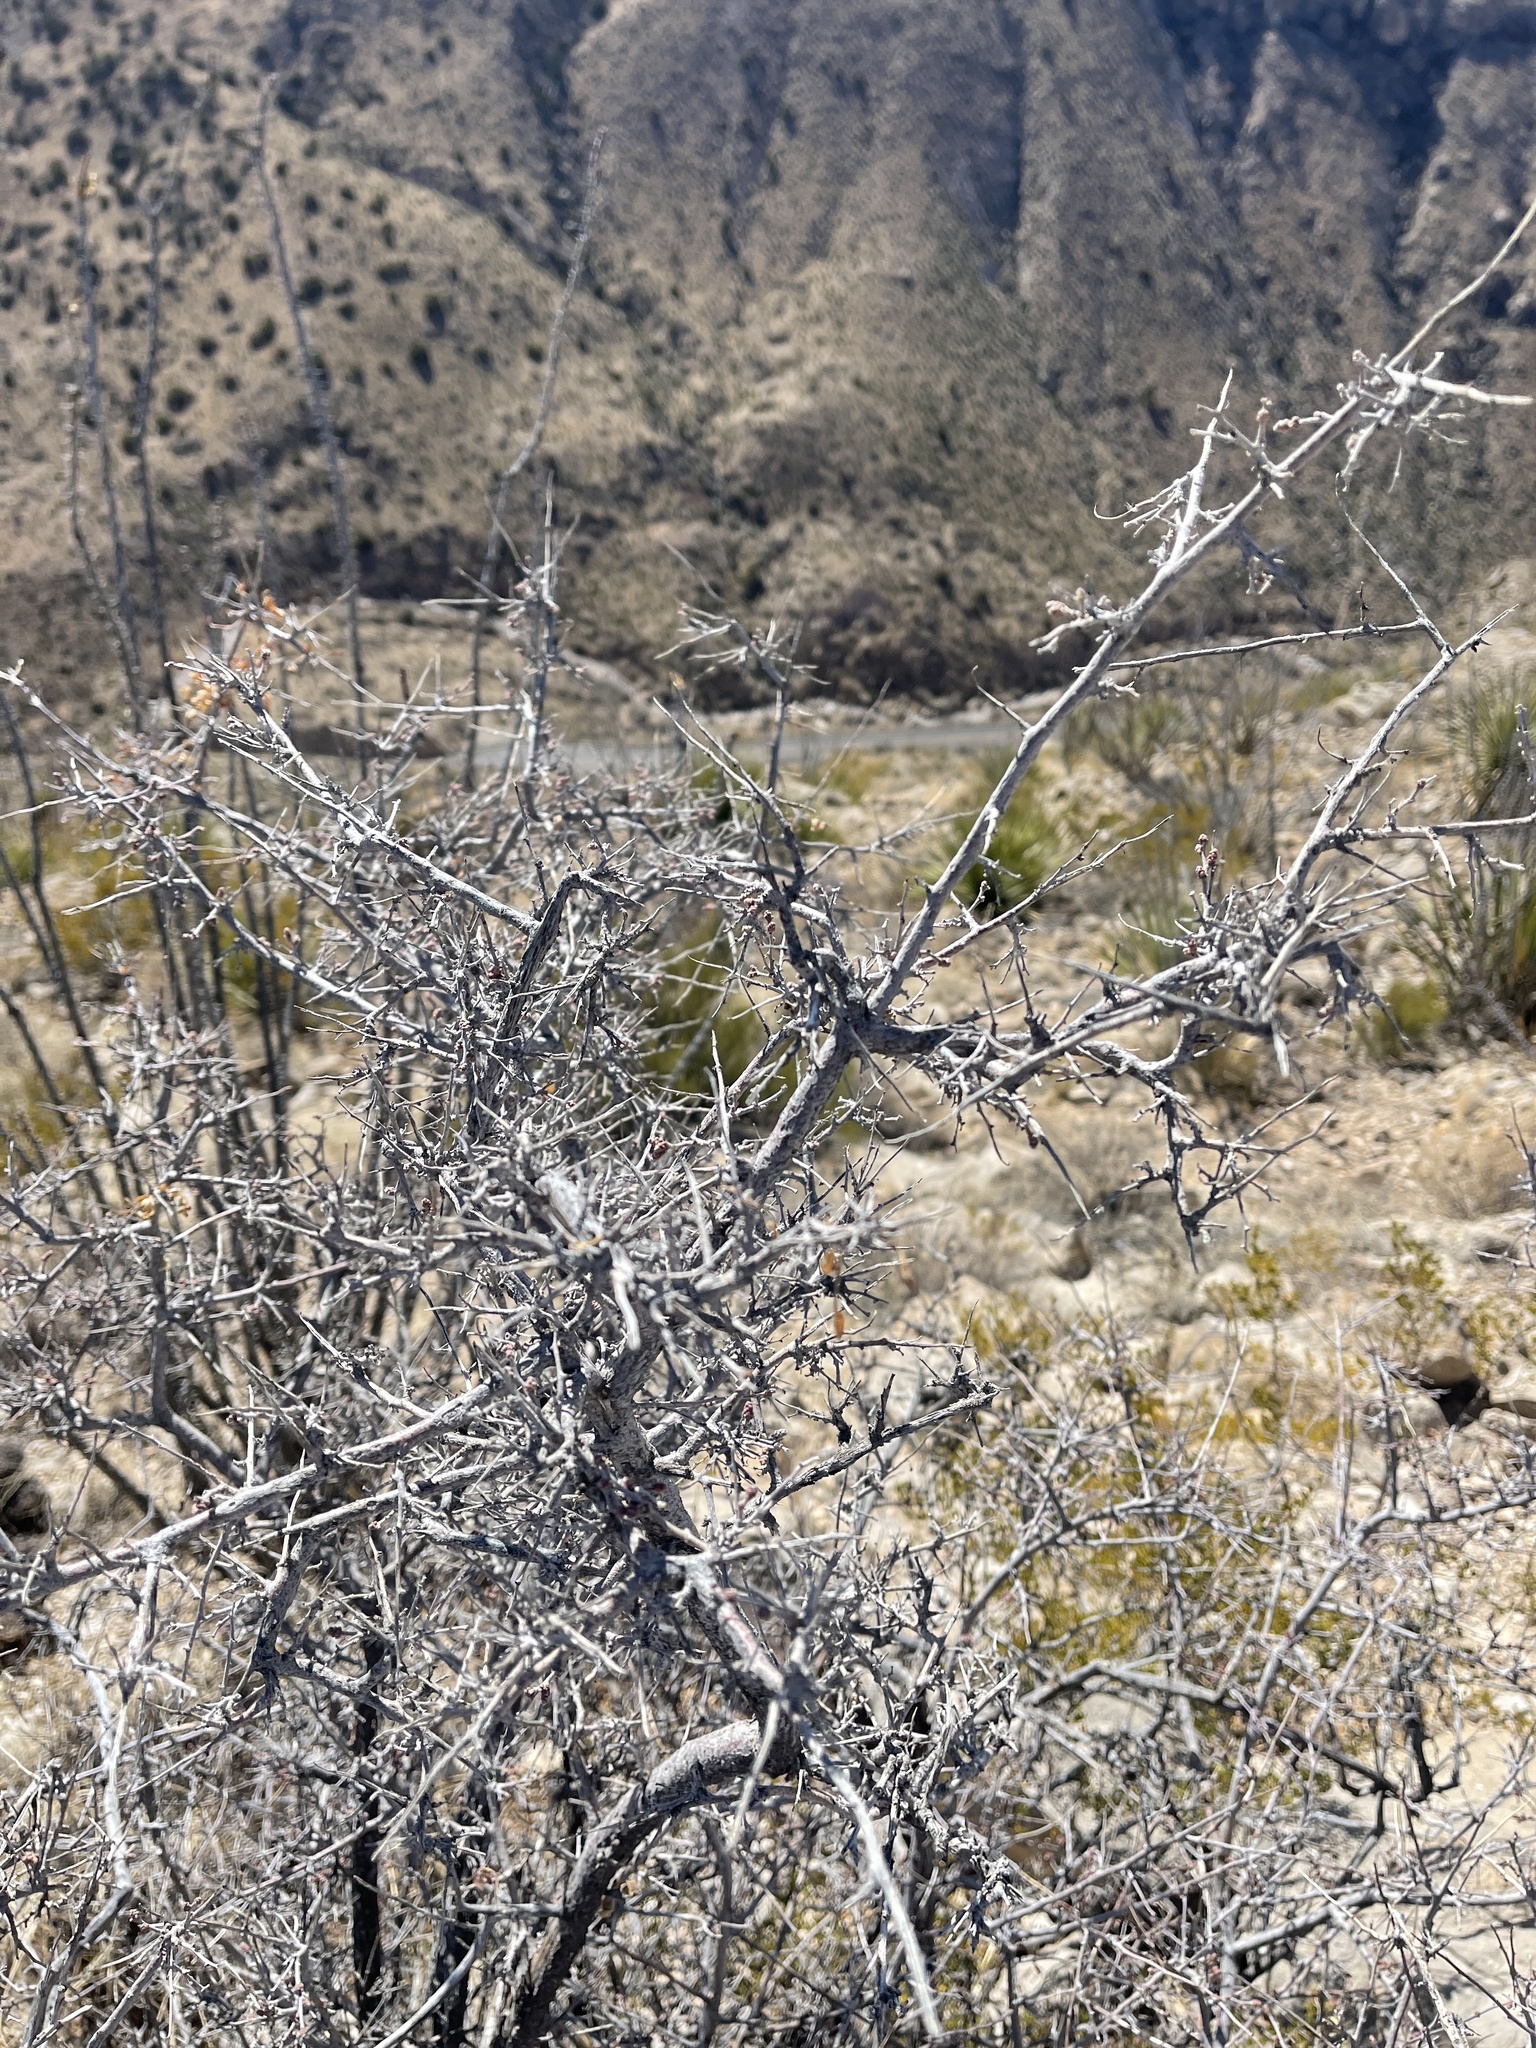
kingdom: Plantae
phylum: Tracheophyta
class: Magnoliopsida
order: Sapindales
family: Anacardiaceae
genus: Rhus
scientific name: Rhus microphylla
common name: Desert sumac
